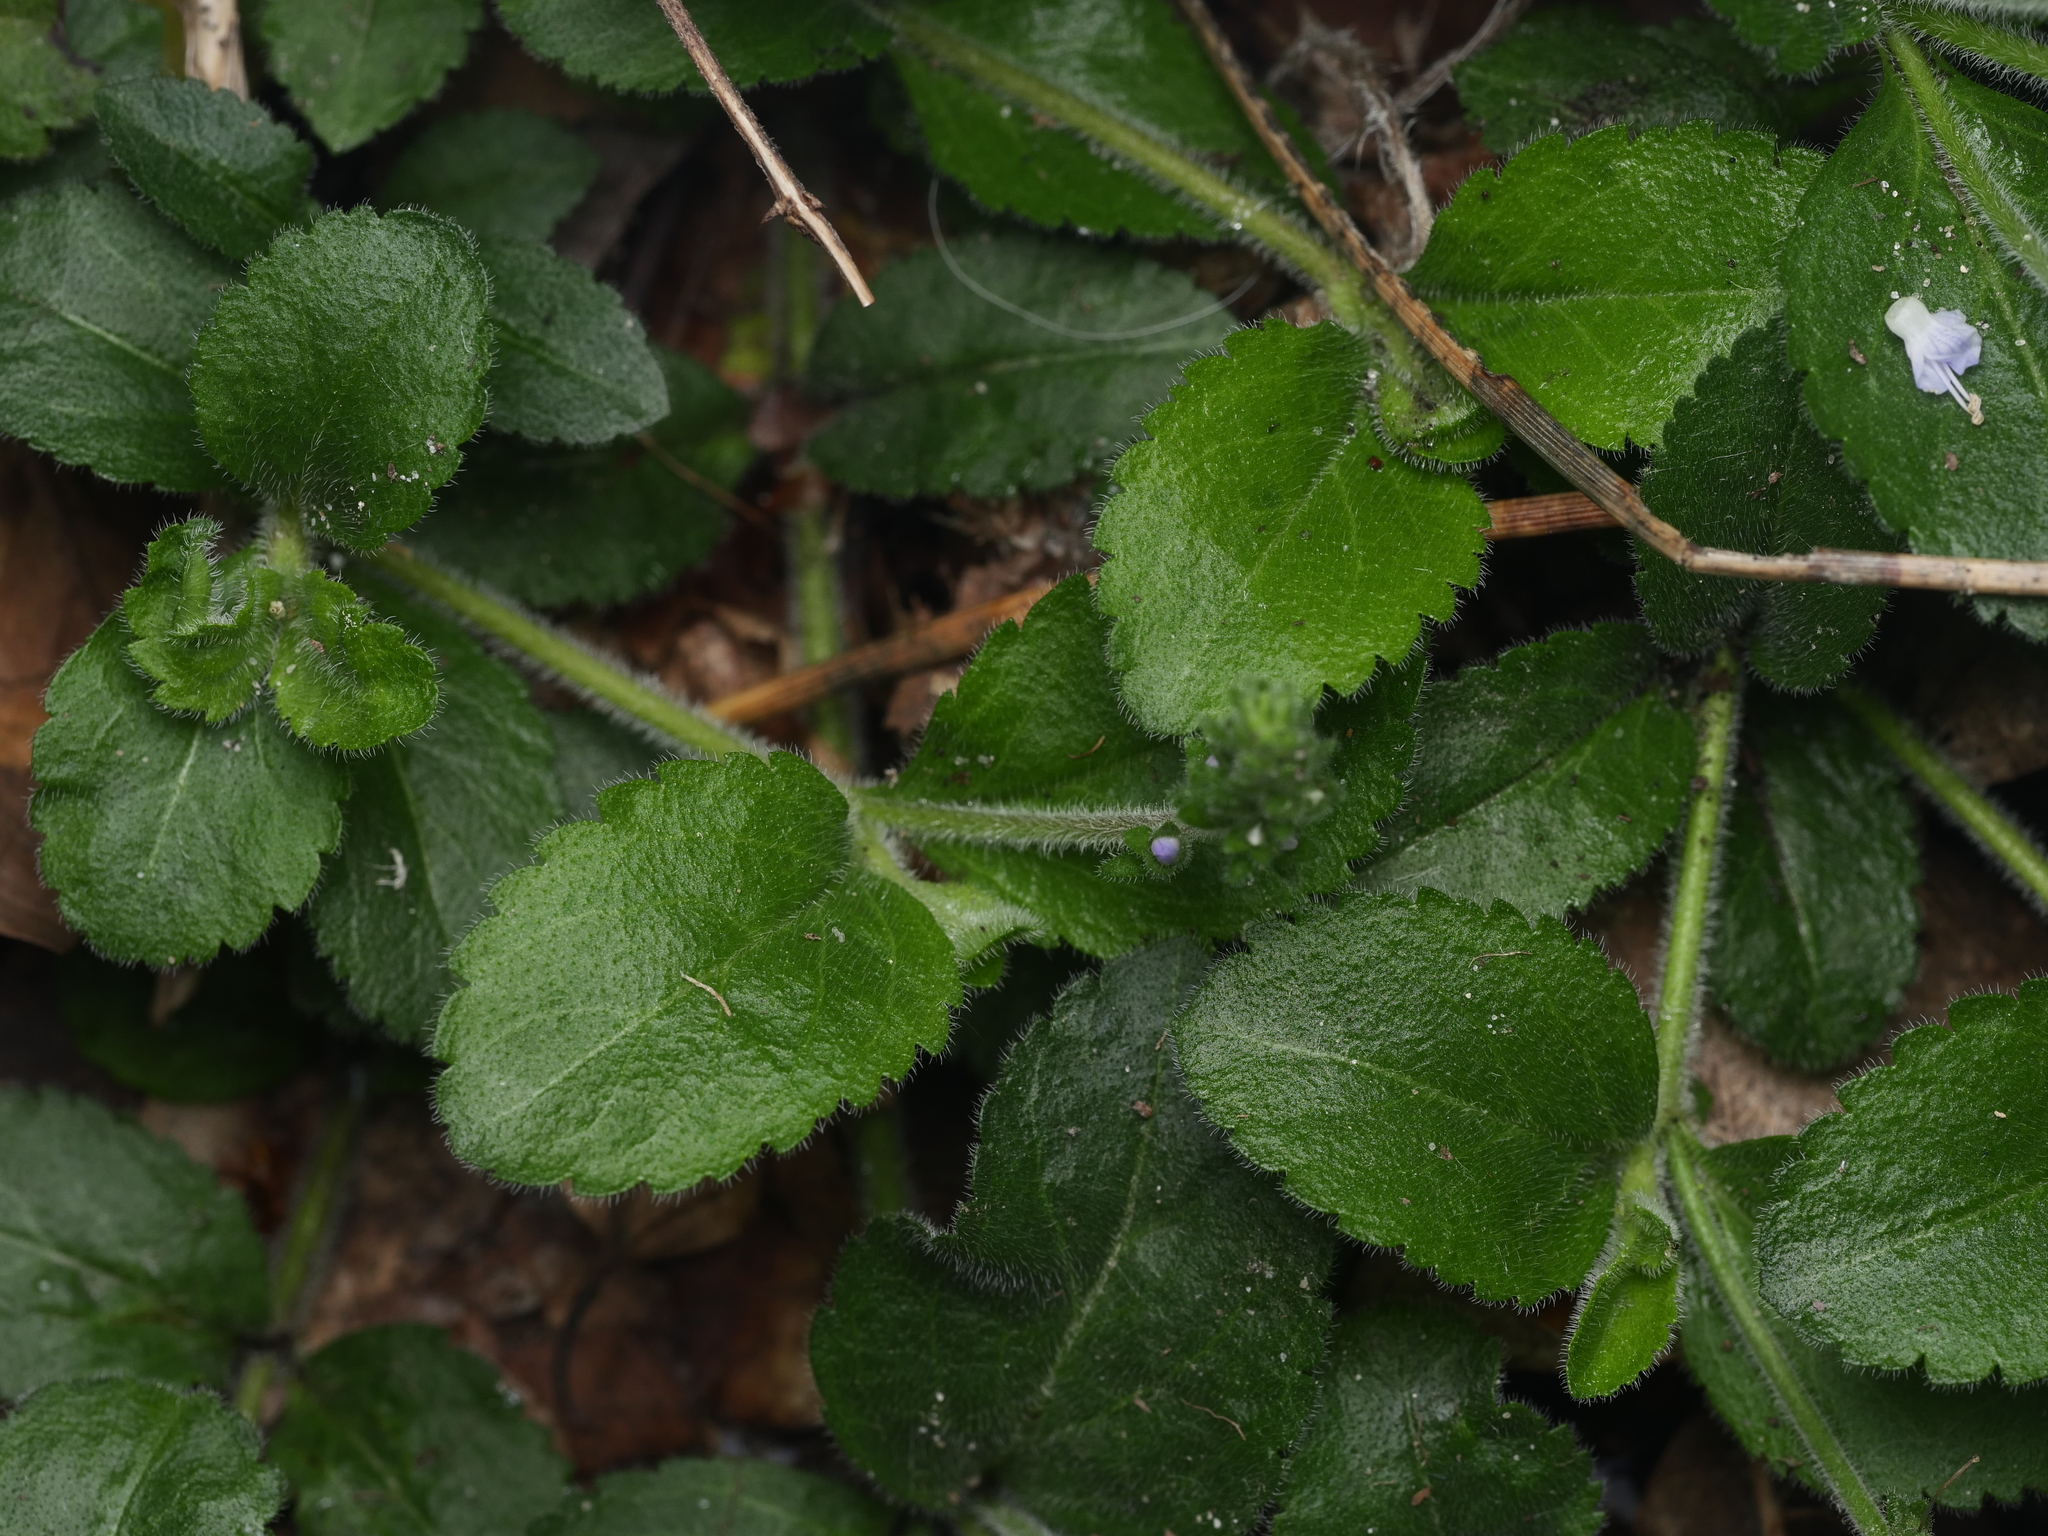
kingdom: Plantae
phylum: Tracheophyta
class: Magnoliopsida
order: Lamiales
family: Plantaginaceae
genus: Veronica
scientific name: Veronica officinalis
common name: Common speedwell
